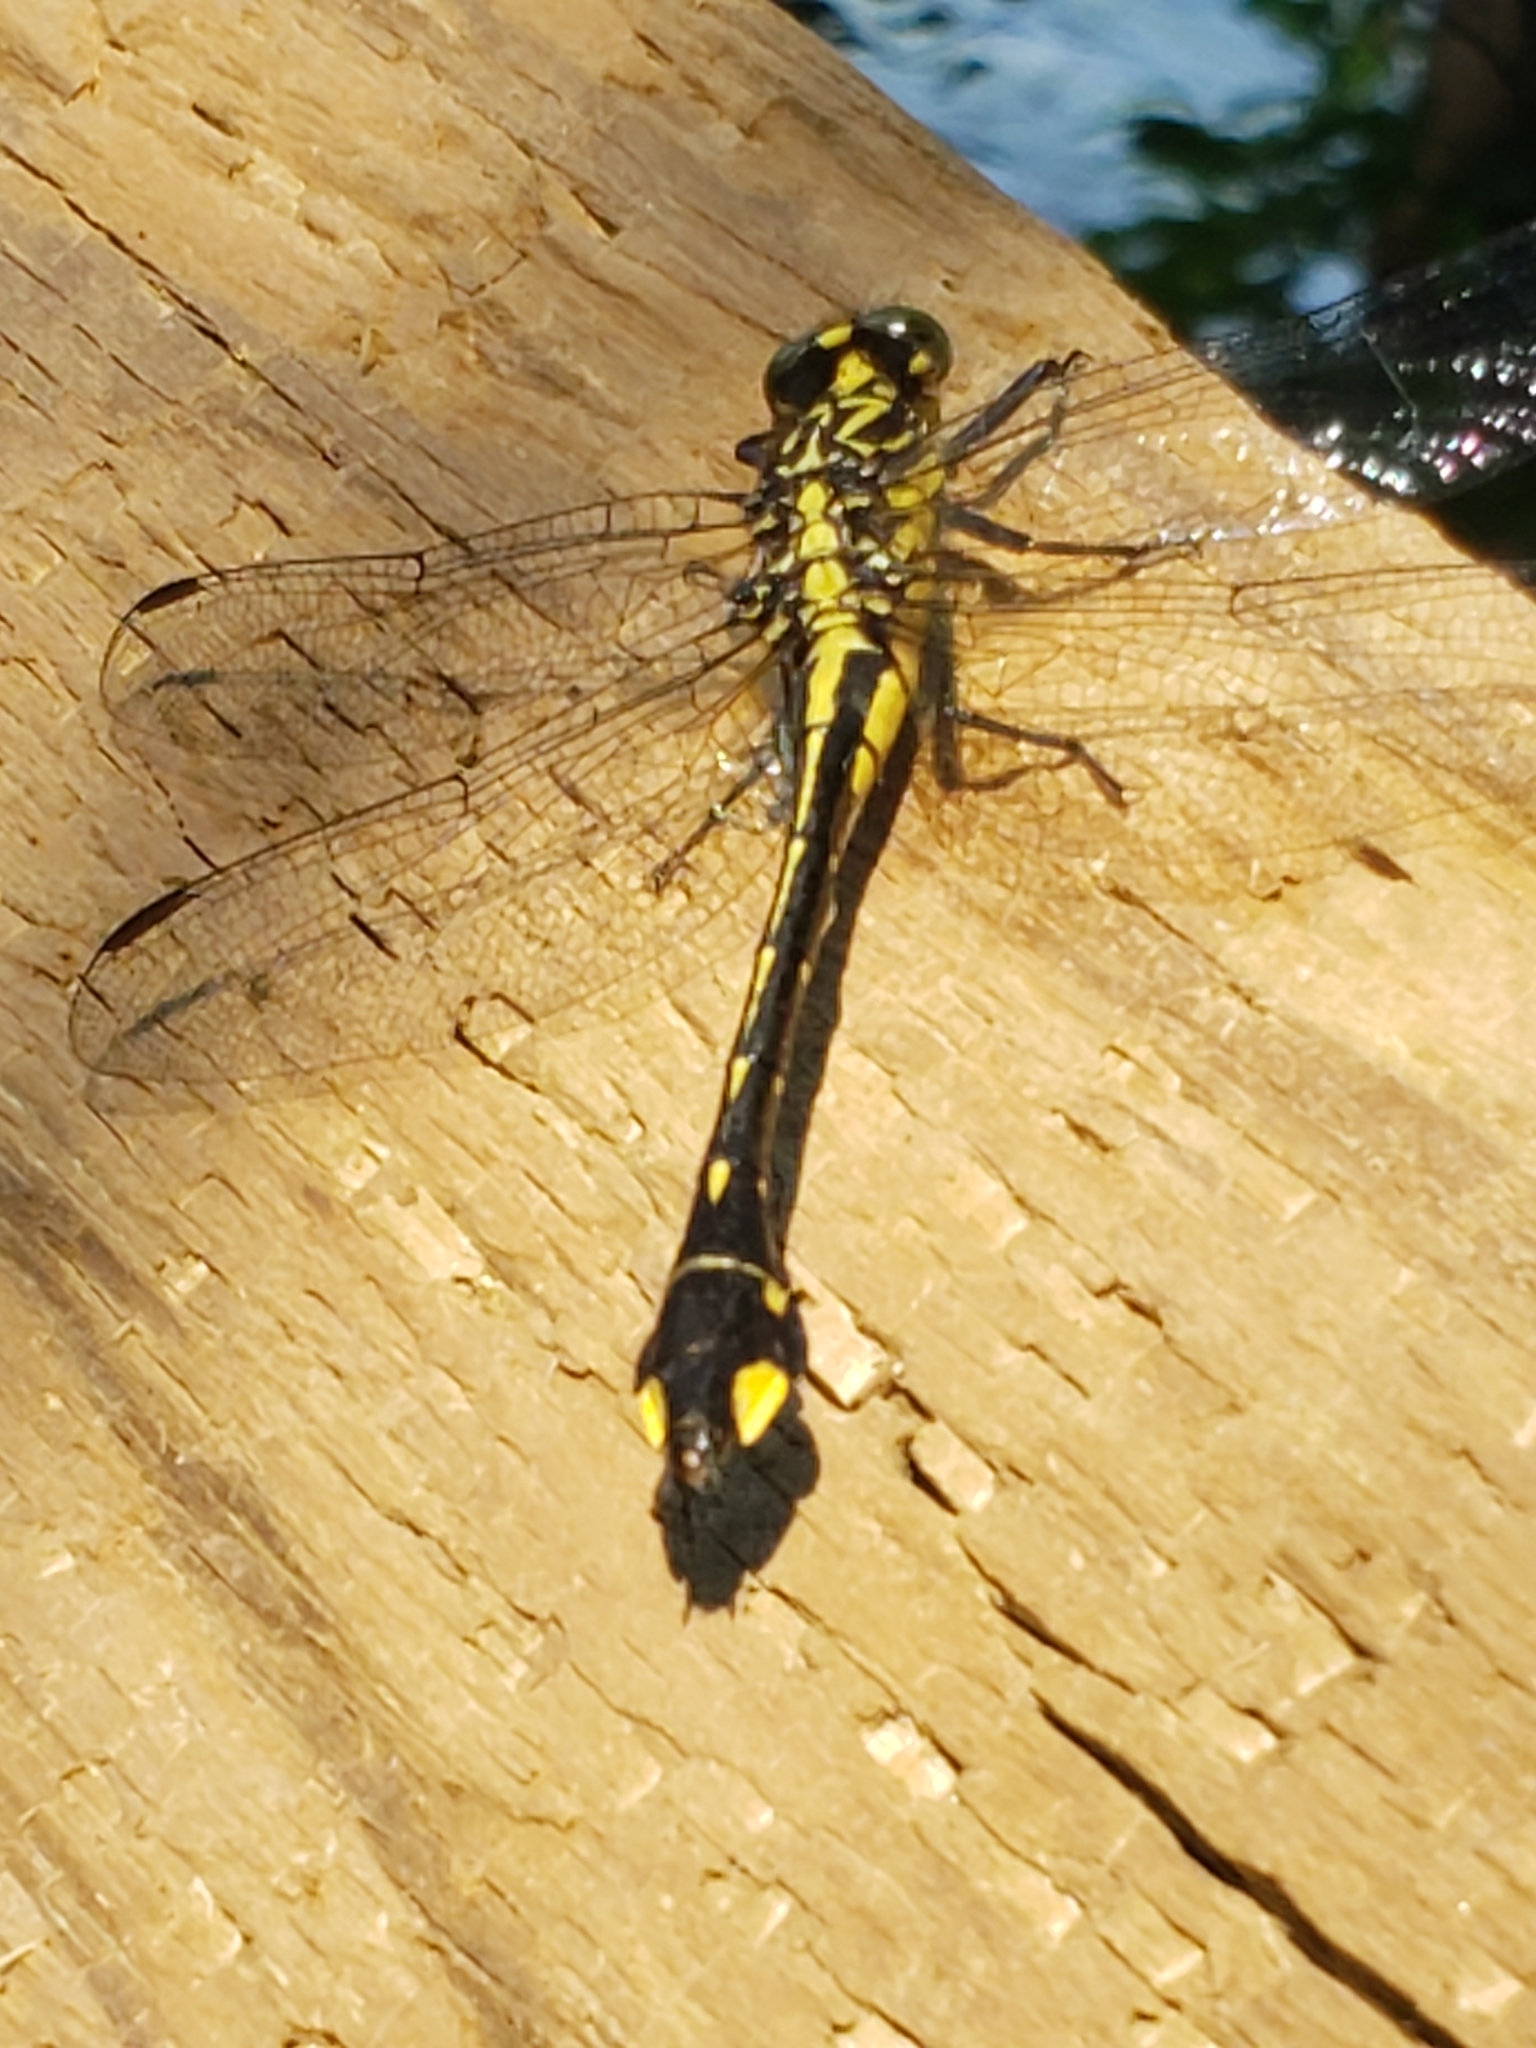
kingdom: Animalia
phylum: Arthropoda
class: Insecta
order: Odonata
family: Gomphidae
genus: Gomphurus
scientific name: Gomphurus vastus
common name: Cobra clubtail
